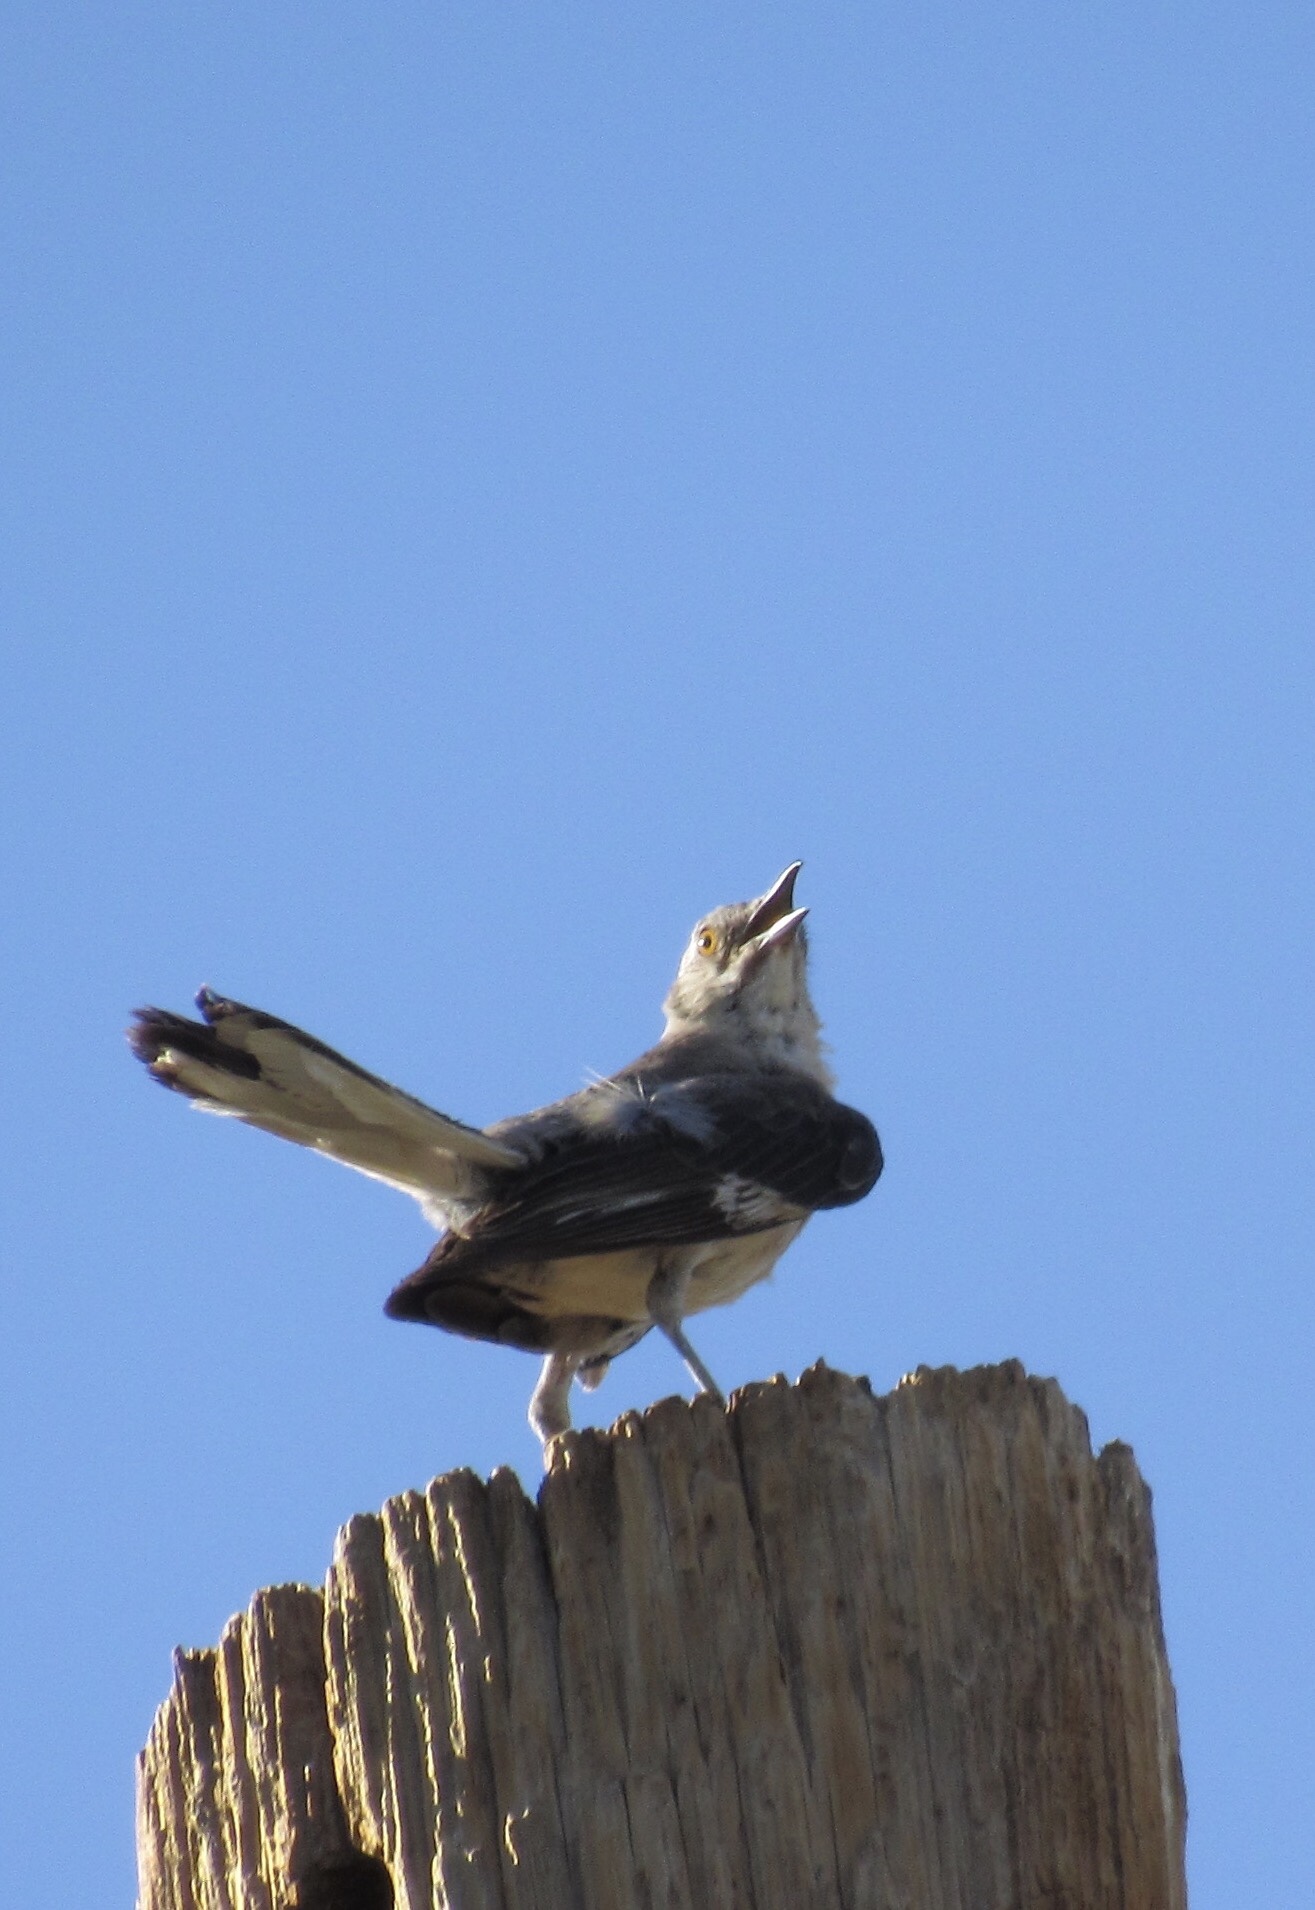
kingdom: Animalia
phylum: Chordata
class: Aves
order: Passeriformes
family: Mimidae
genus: Mimus
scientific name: Mimus polyglottos
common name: Northern mockingbird
